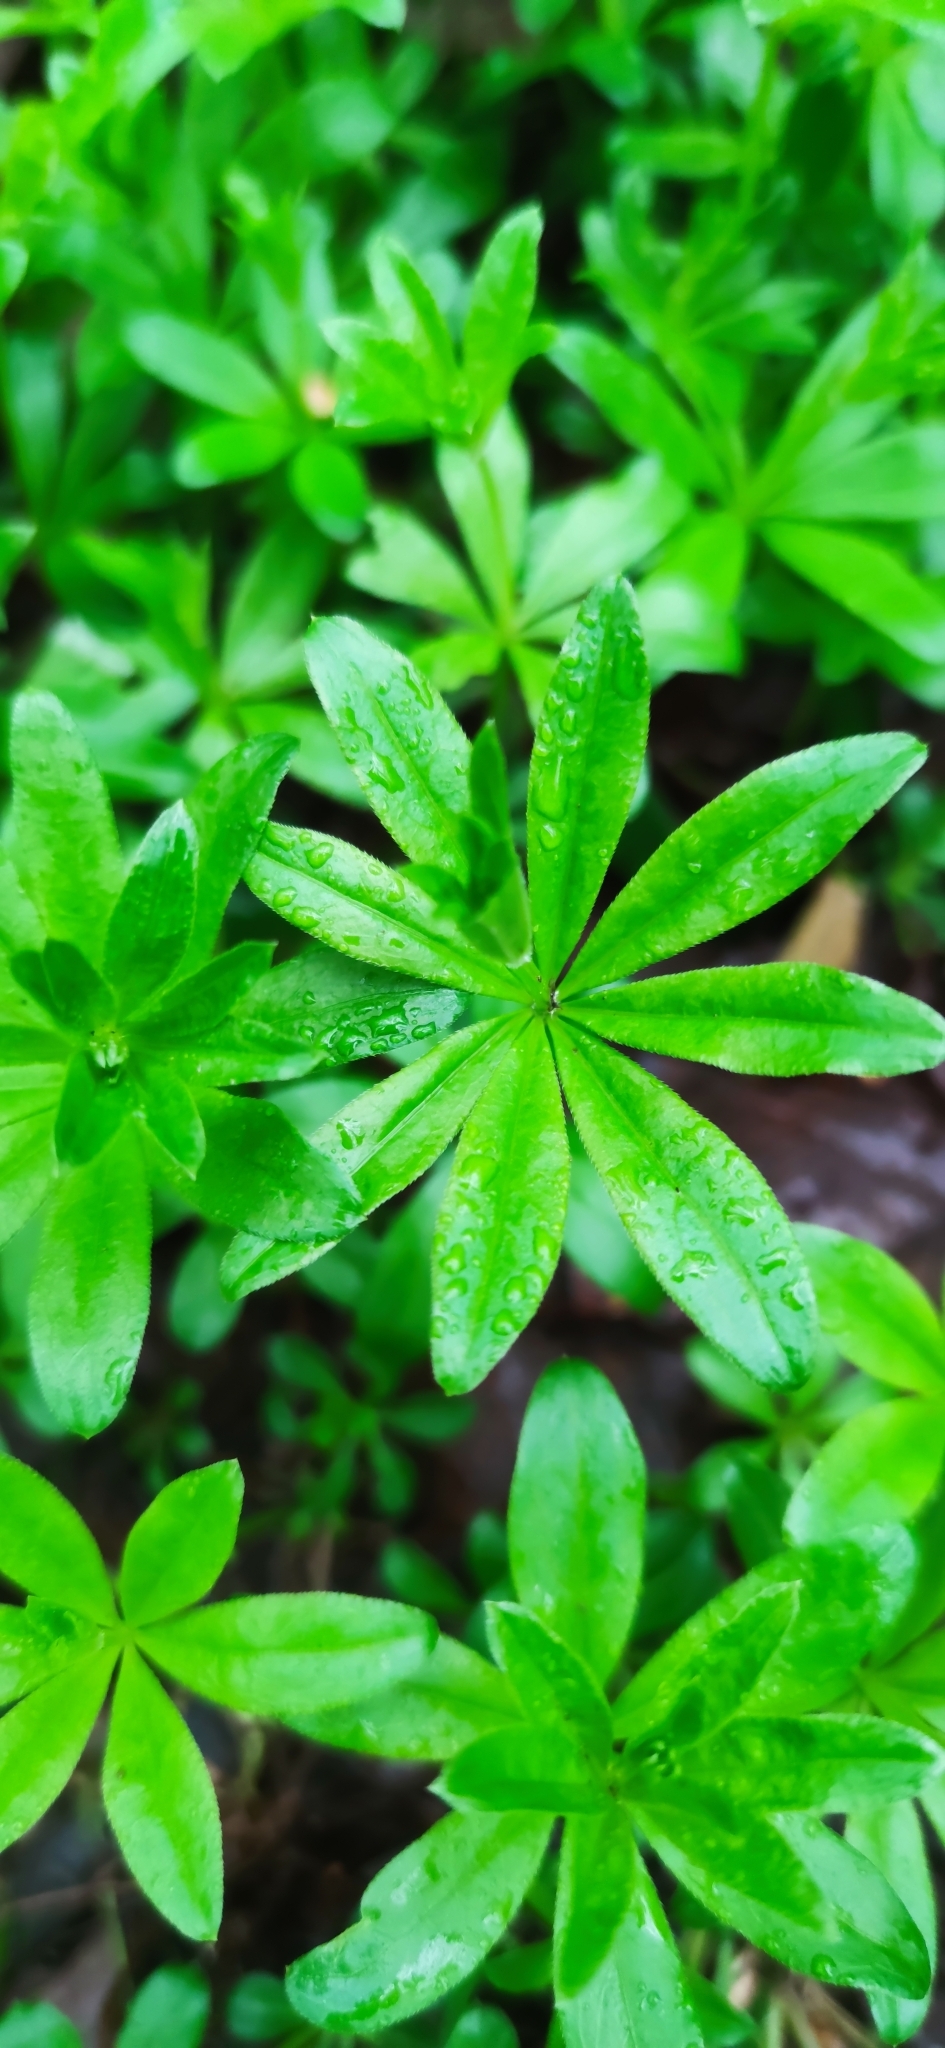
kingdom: Plantae
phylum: Tracheophyta
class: Magnoliopsida
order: Gentianales
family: Rubiaceae
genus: Galium
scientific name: Galium odoratum
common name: Sweet woodruff
